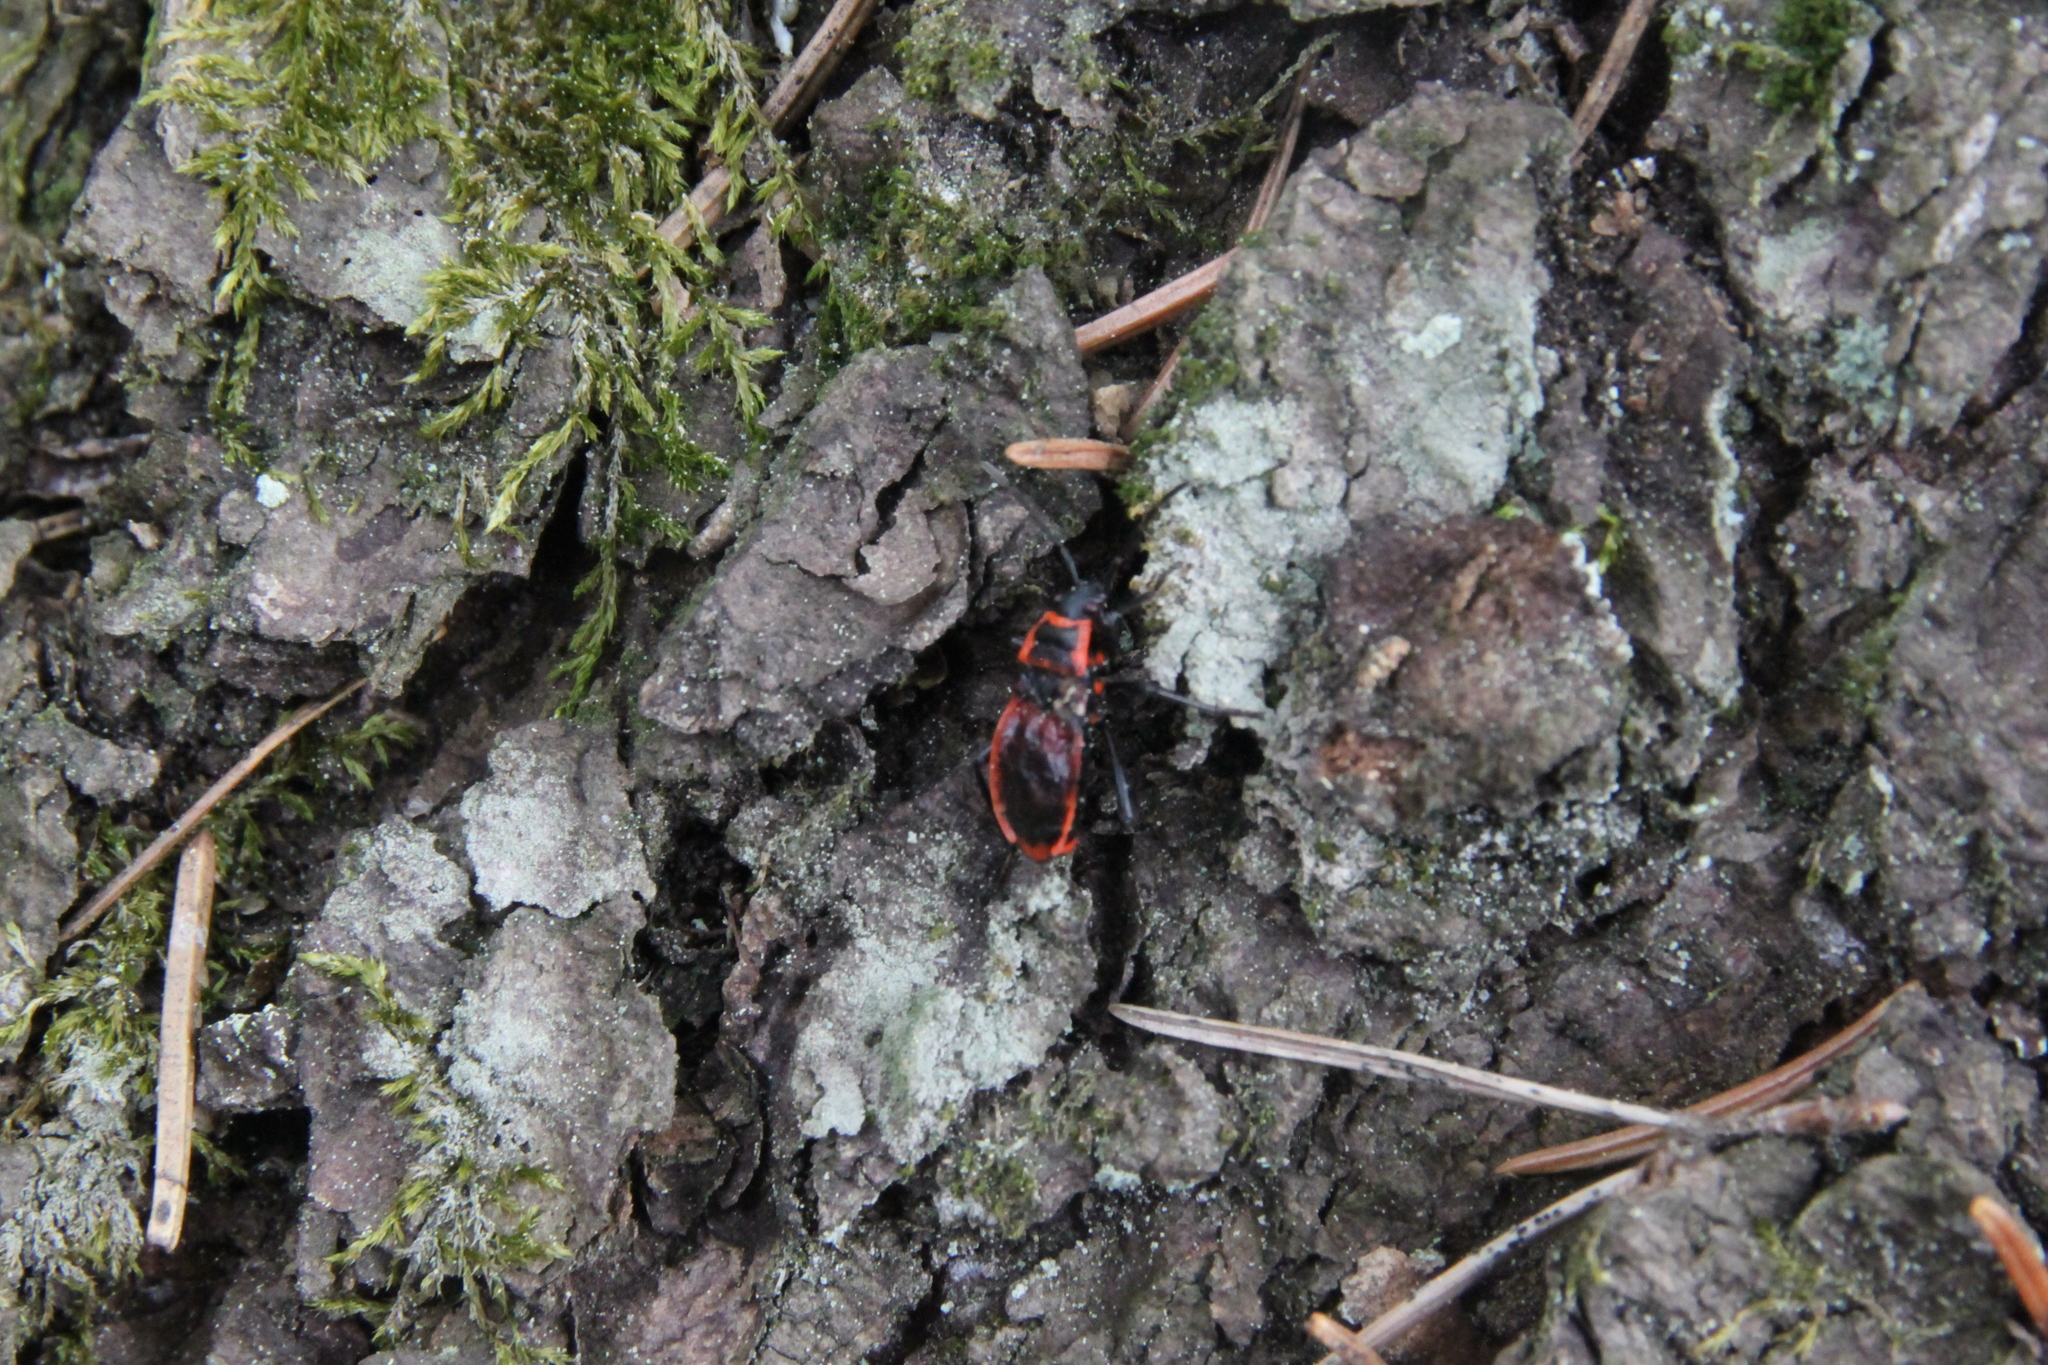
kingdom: Animalia
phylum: Arthropoda
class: Insecta
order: Hemiptera
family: Pyrrhocoridae
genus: Pyrrhocoris
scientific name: Pyrrhocoris apterus
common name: Firebug
